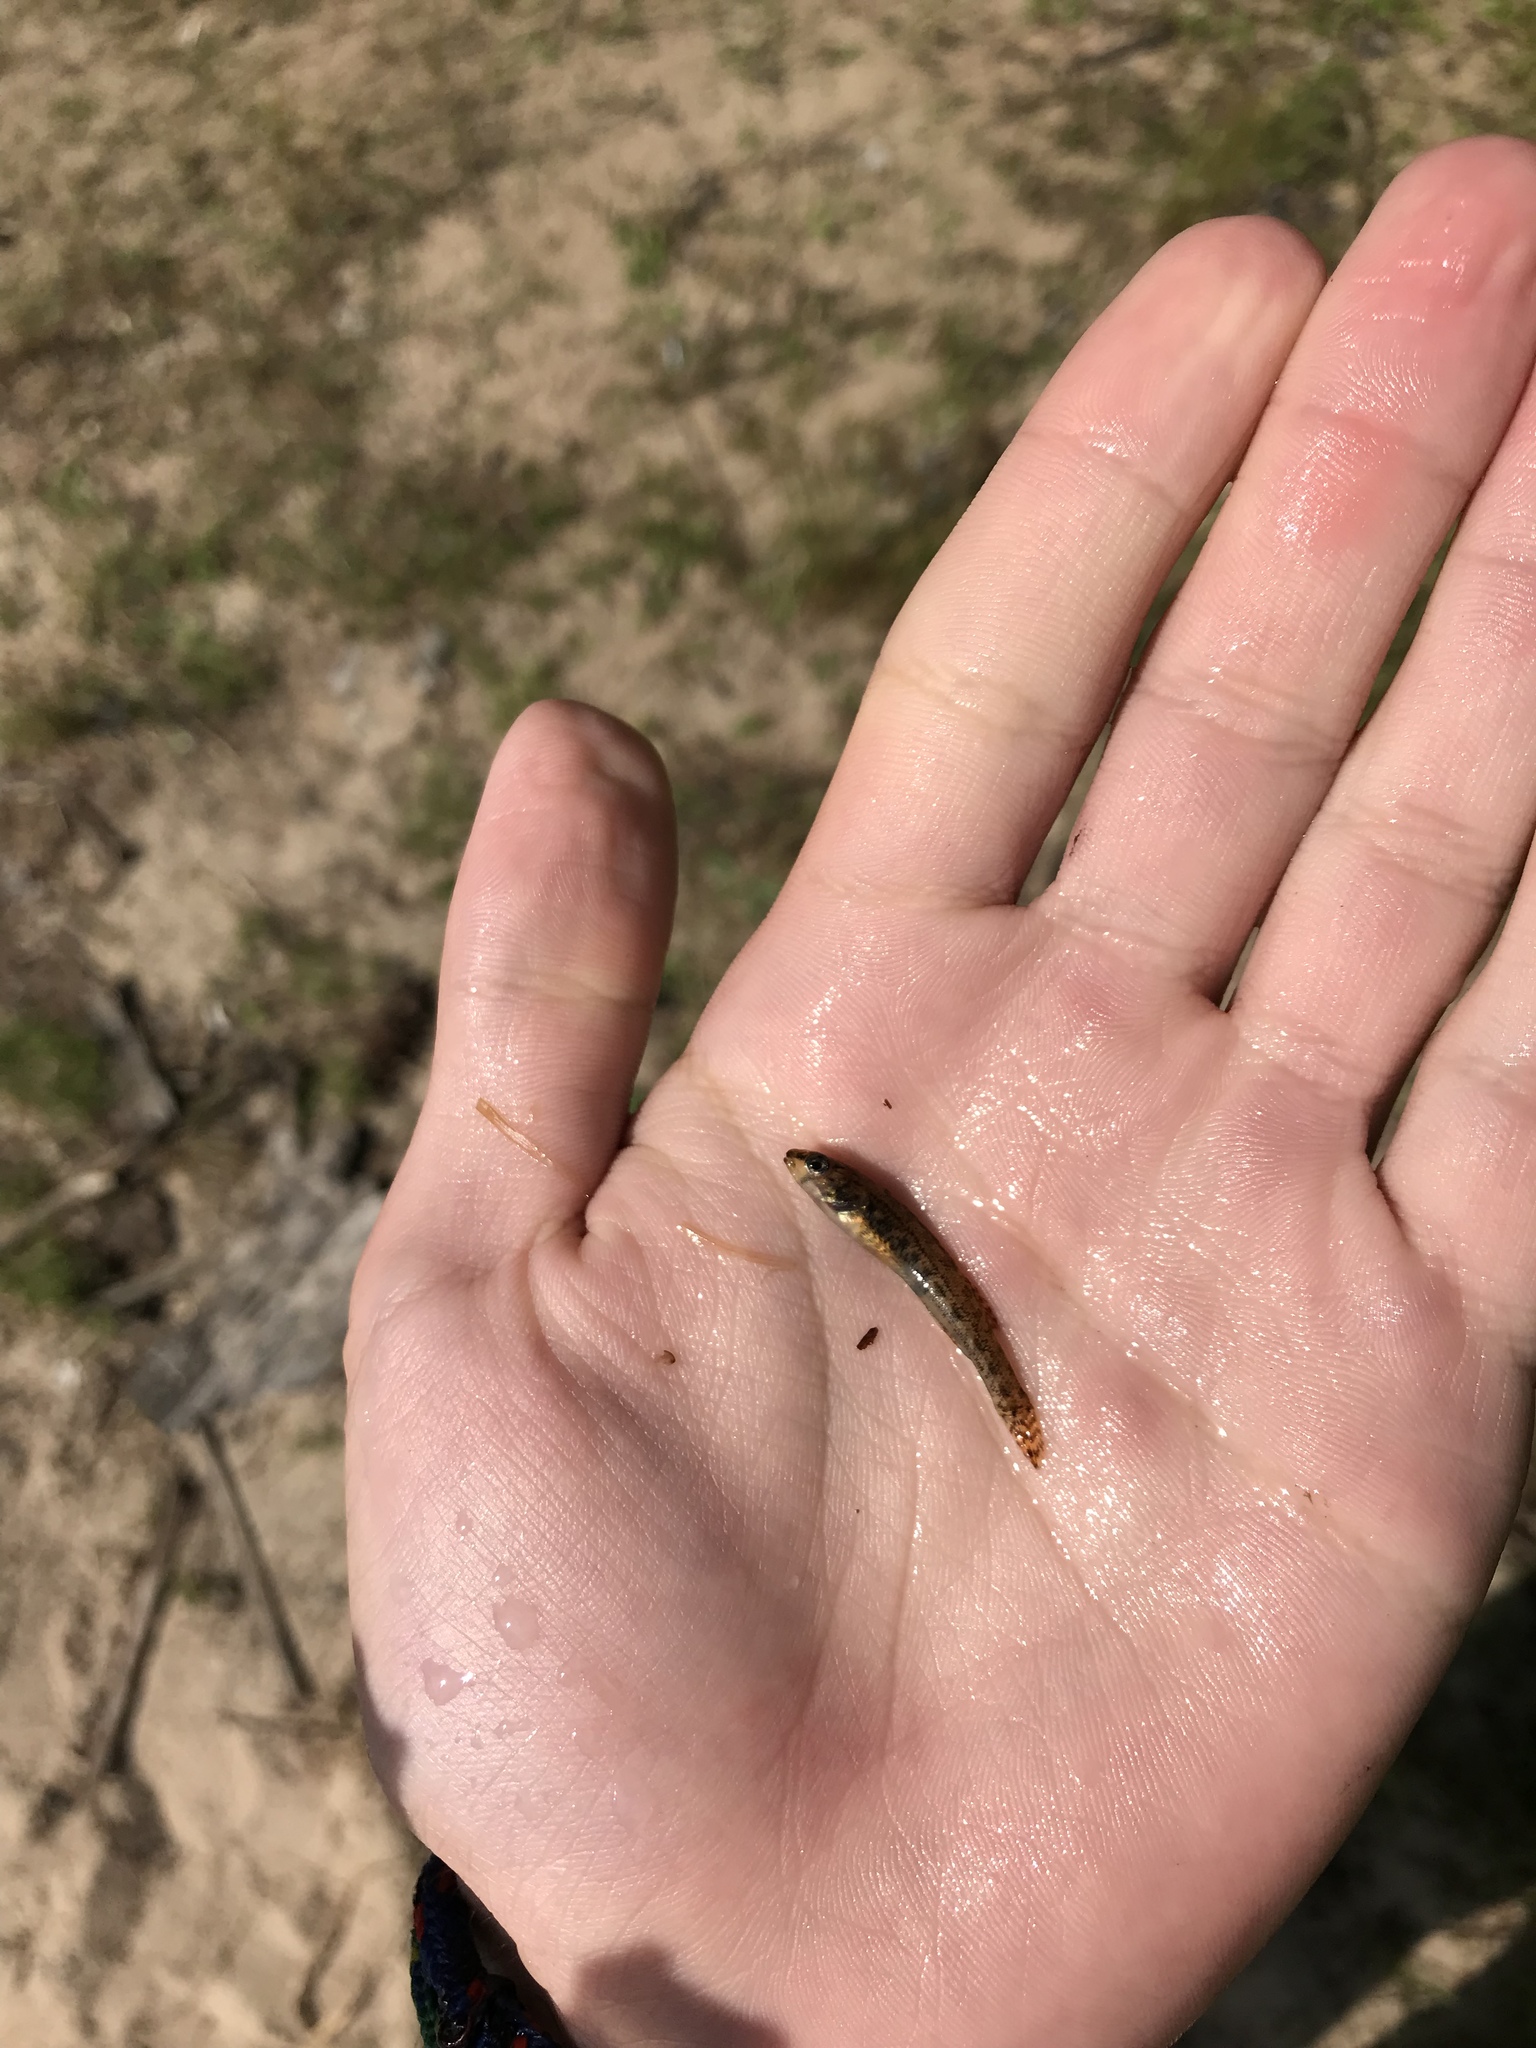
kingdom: Animalia
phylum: Chordata
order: Perciformes
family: Percidae
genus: Etheostoma
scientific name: Etheostoma exile
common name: Iowa darter
